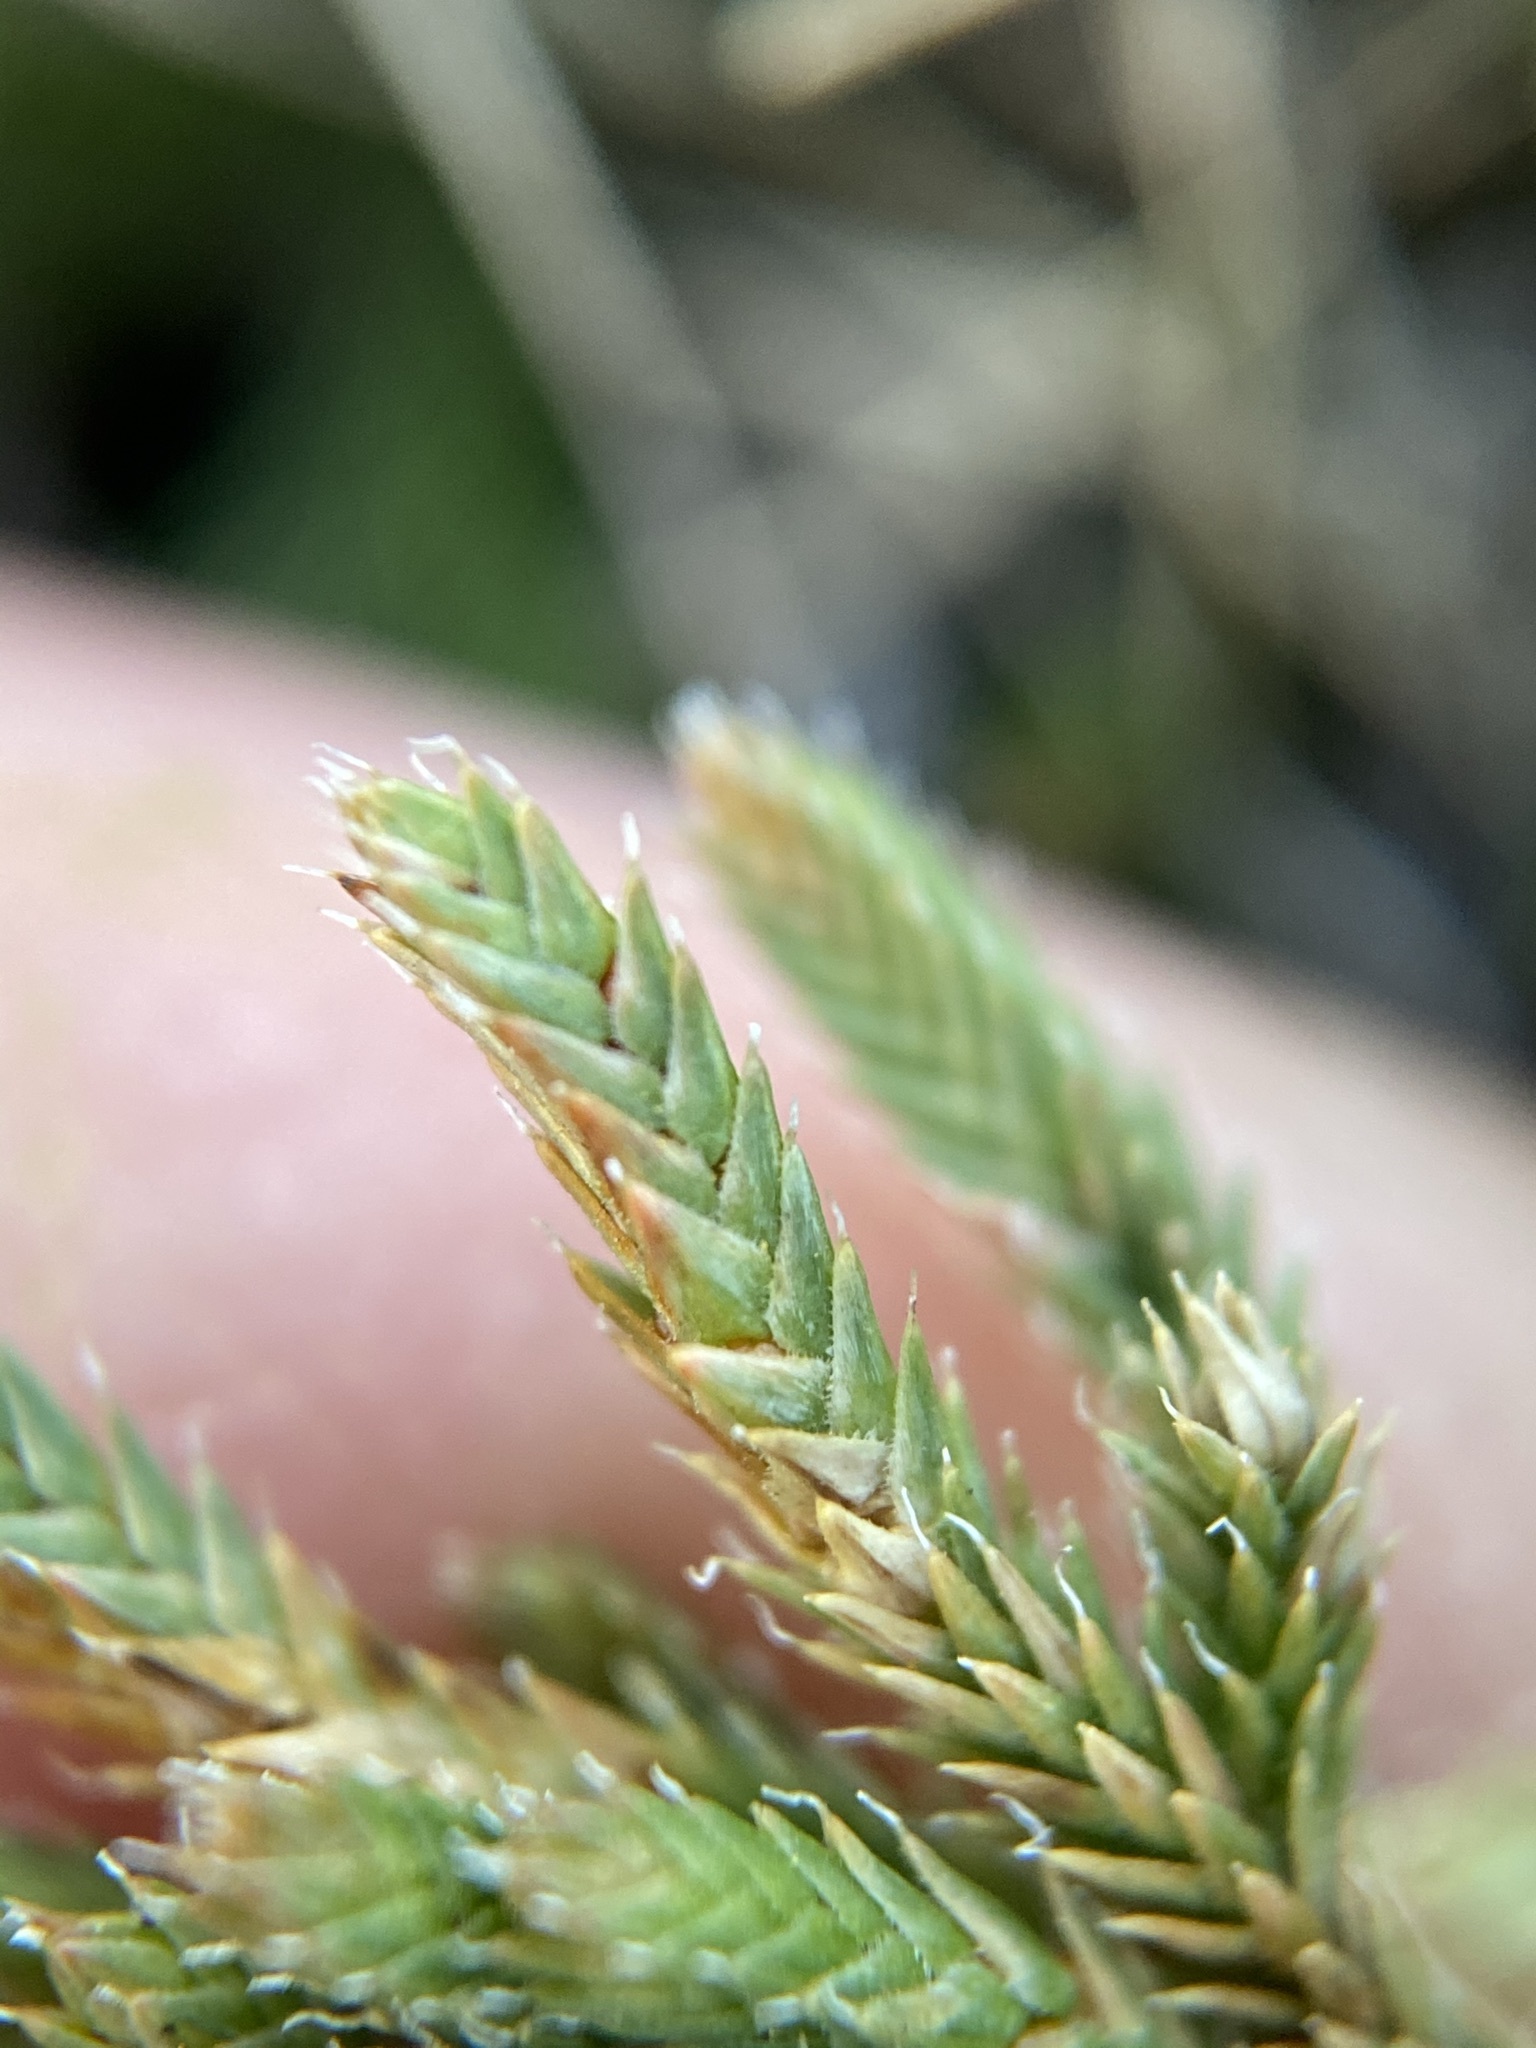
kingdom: Plantae
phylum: Tracheophyta
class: Lycopodiopsida
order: Selaginellales
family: Selaginellaceae
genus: Selaginella
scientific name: Selaginella peruviana
